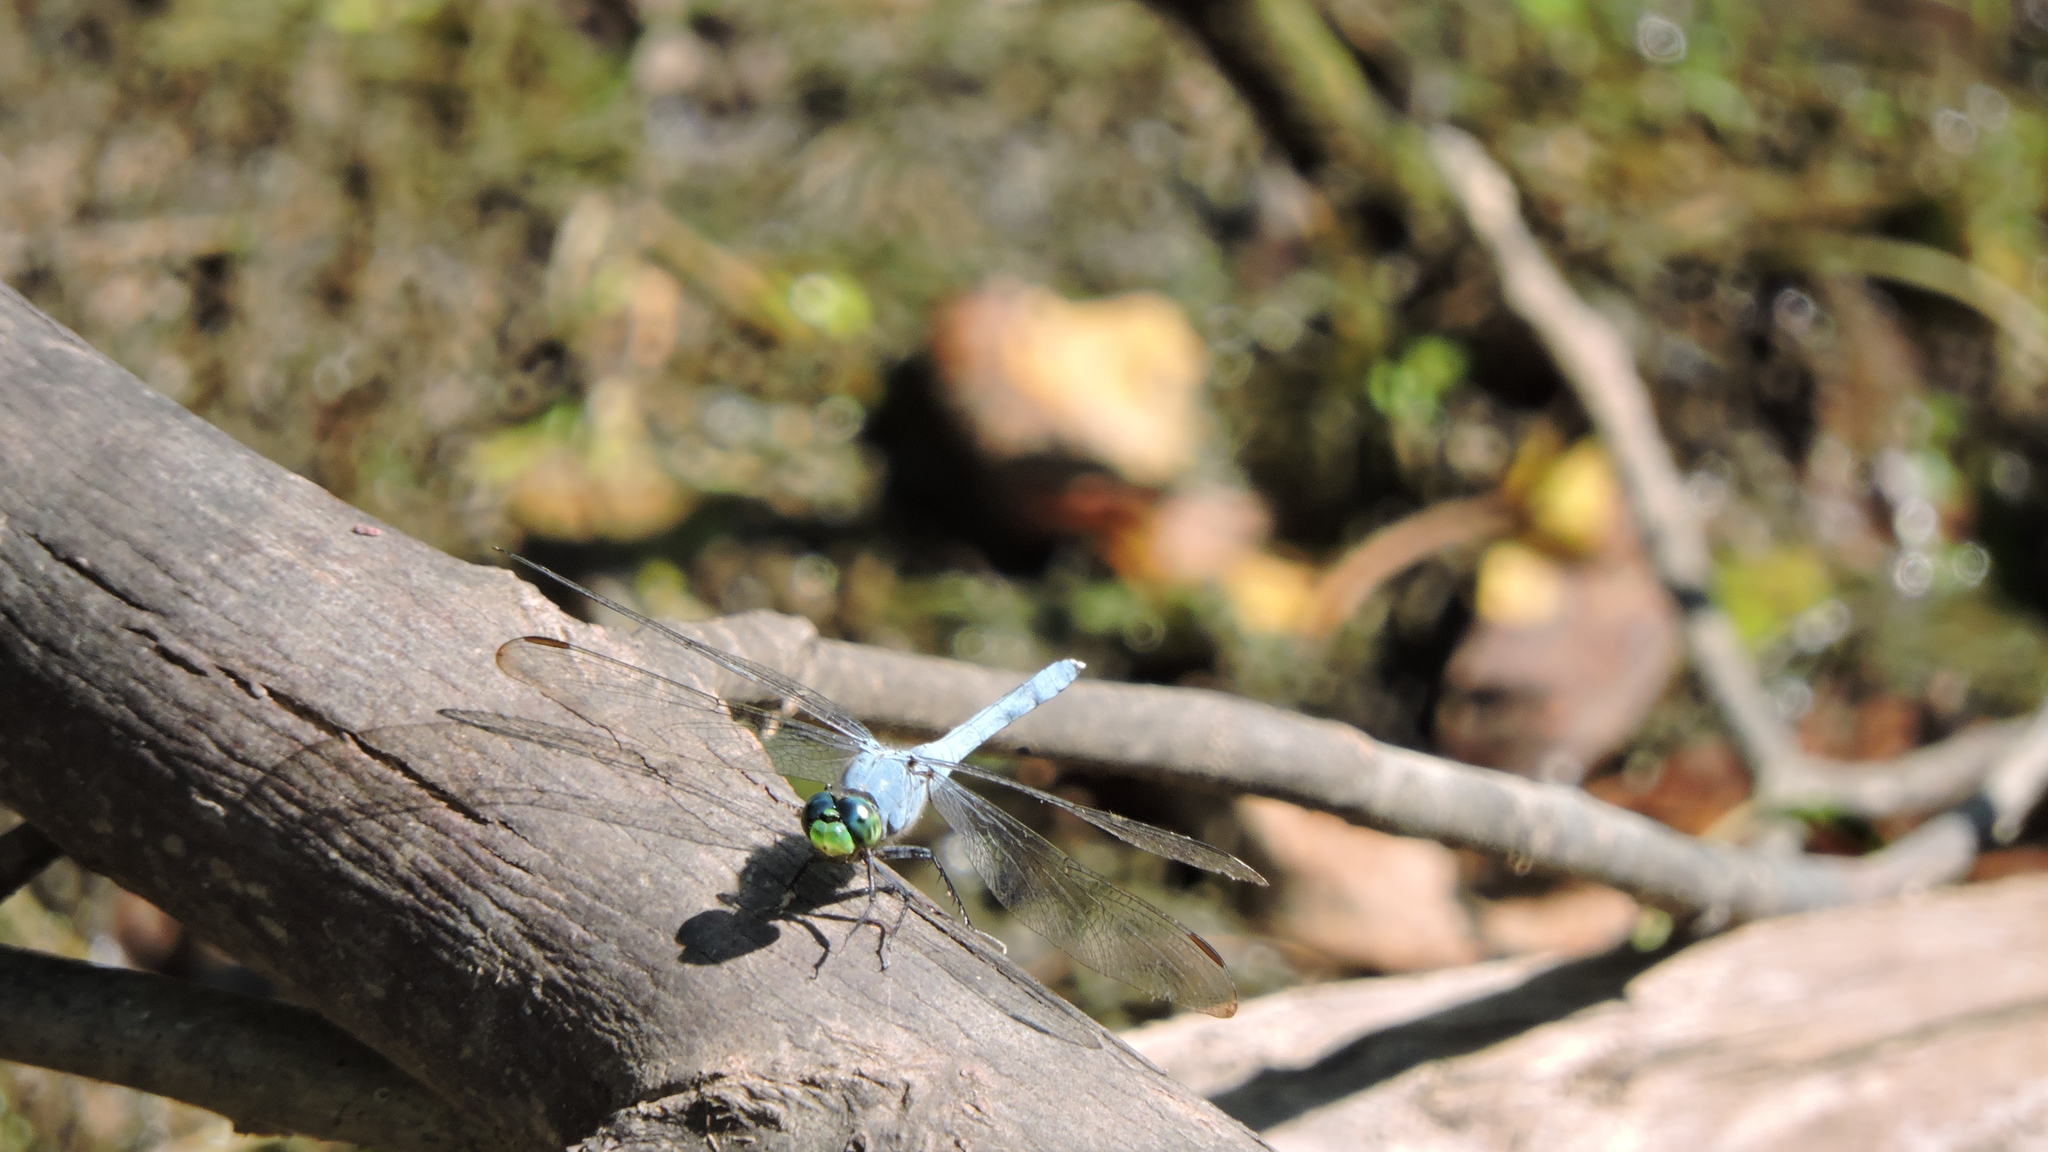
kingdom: Animalia
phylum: Arthropoda
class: Insecta
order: Odonata
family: Libellulidae
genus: Erythemis
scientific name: Erythemis simplicicollis
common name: Eastern pondhawk
